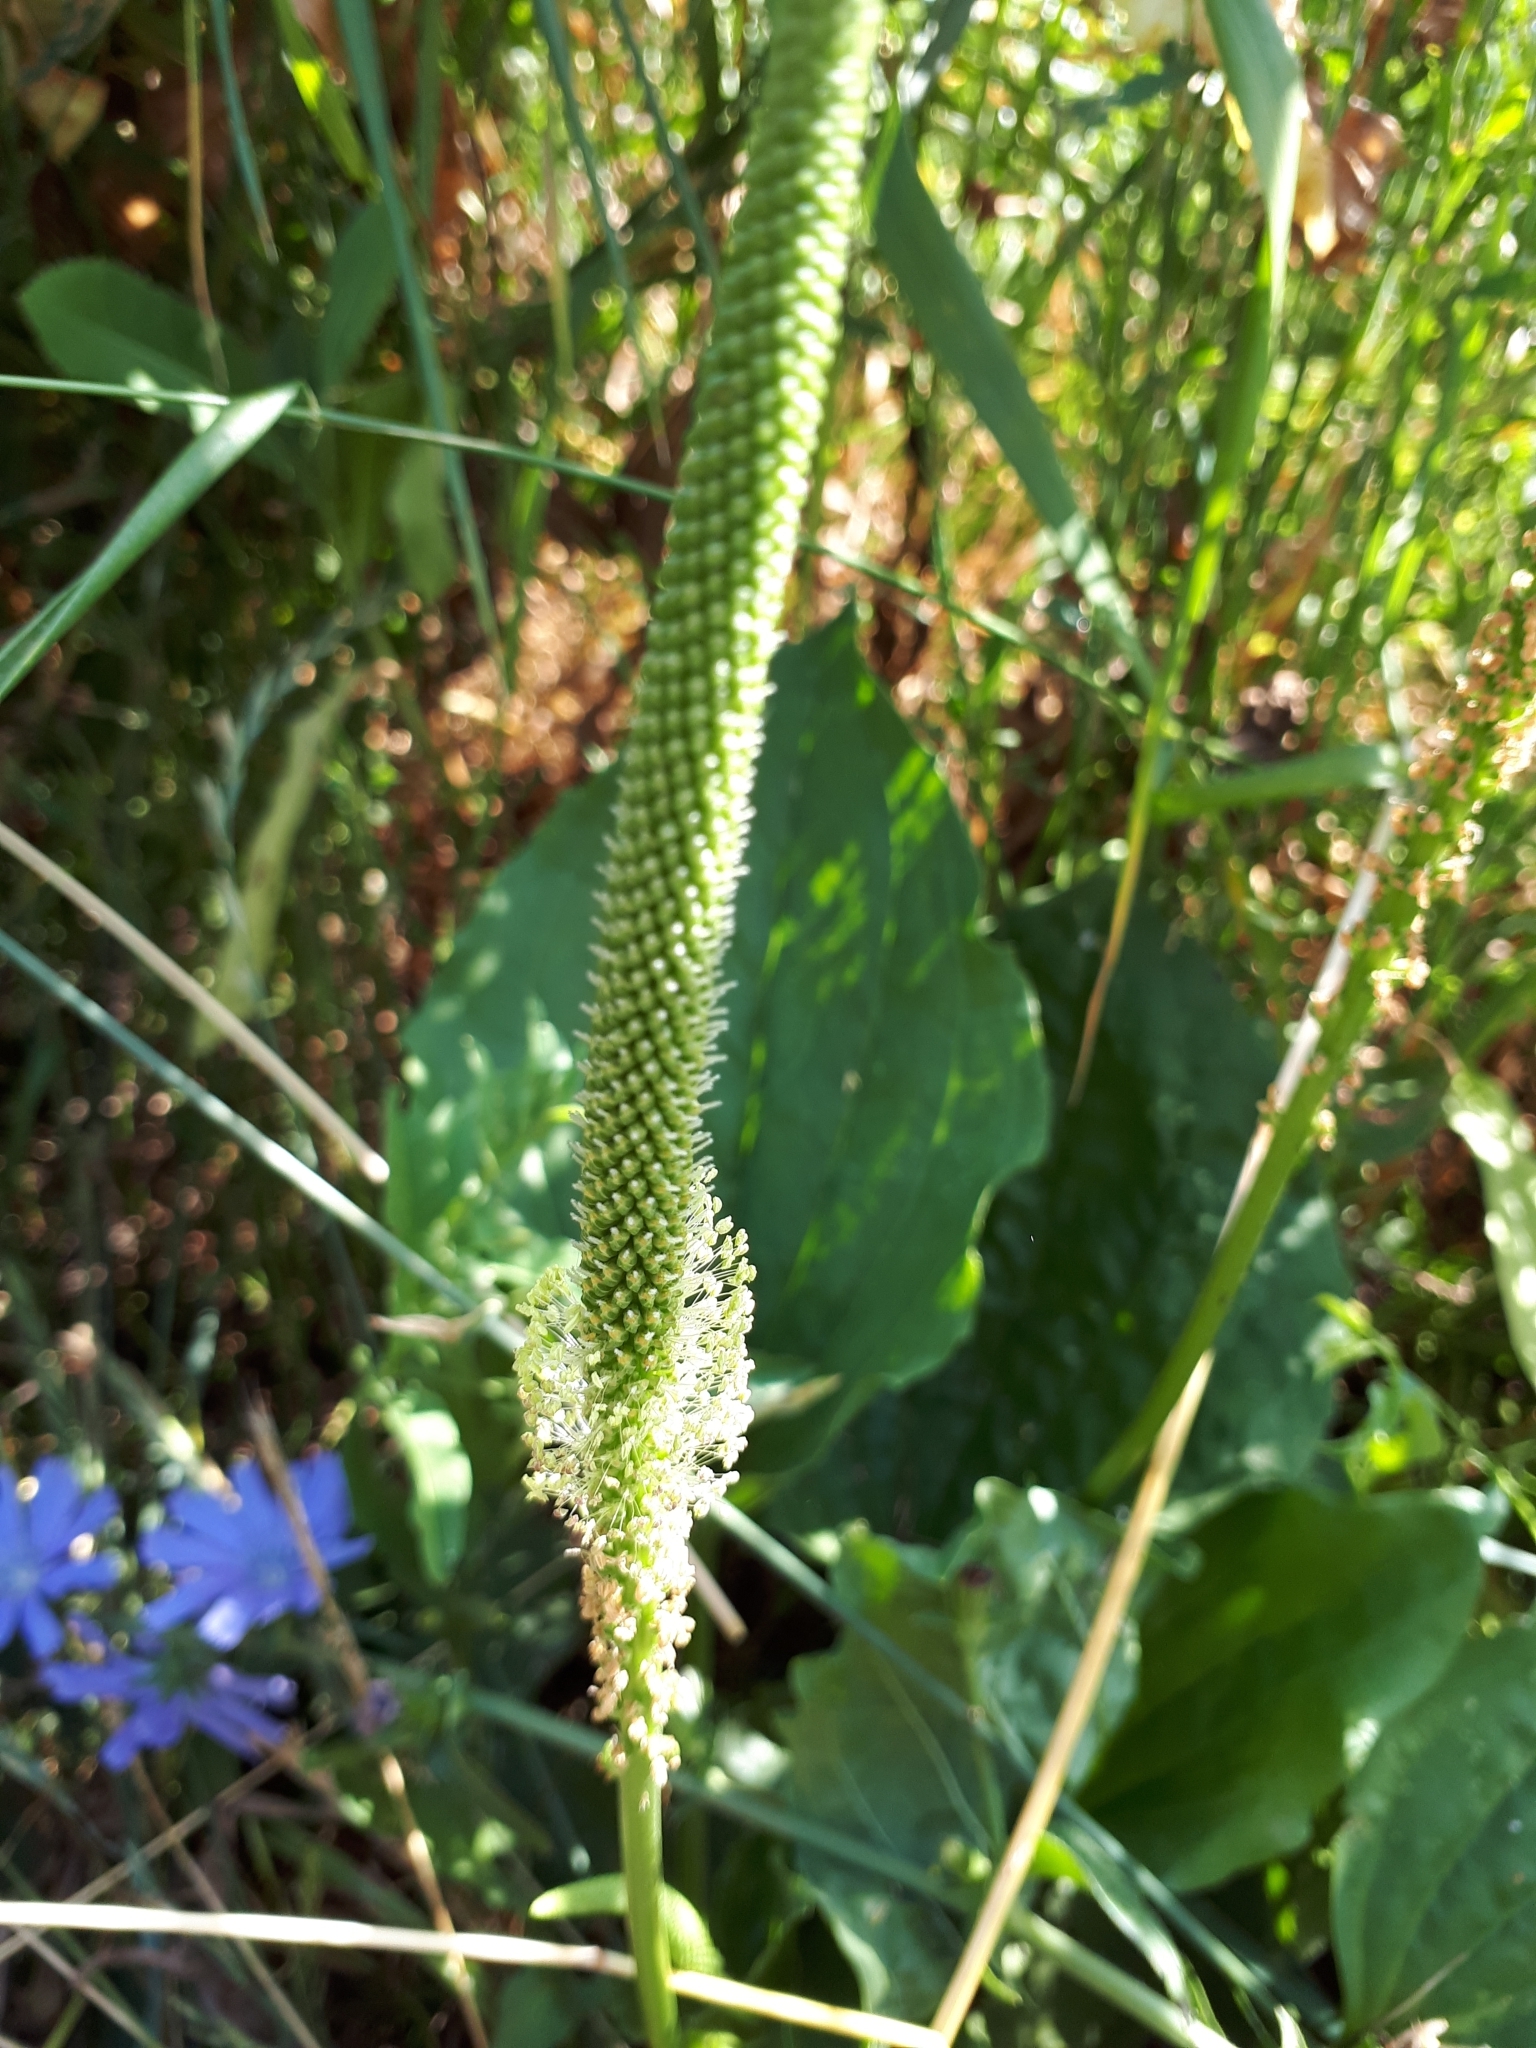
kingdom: Plantae
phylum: Tracheophyta
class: Magnoliopsida
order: Lamiales
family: Plantaginaceae
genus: Plantago
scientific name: Plantago major
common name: Common plantain
